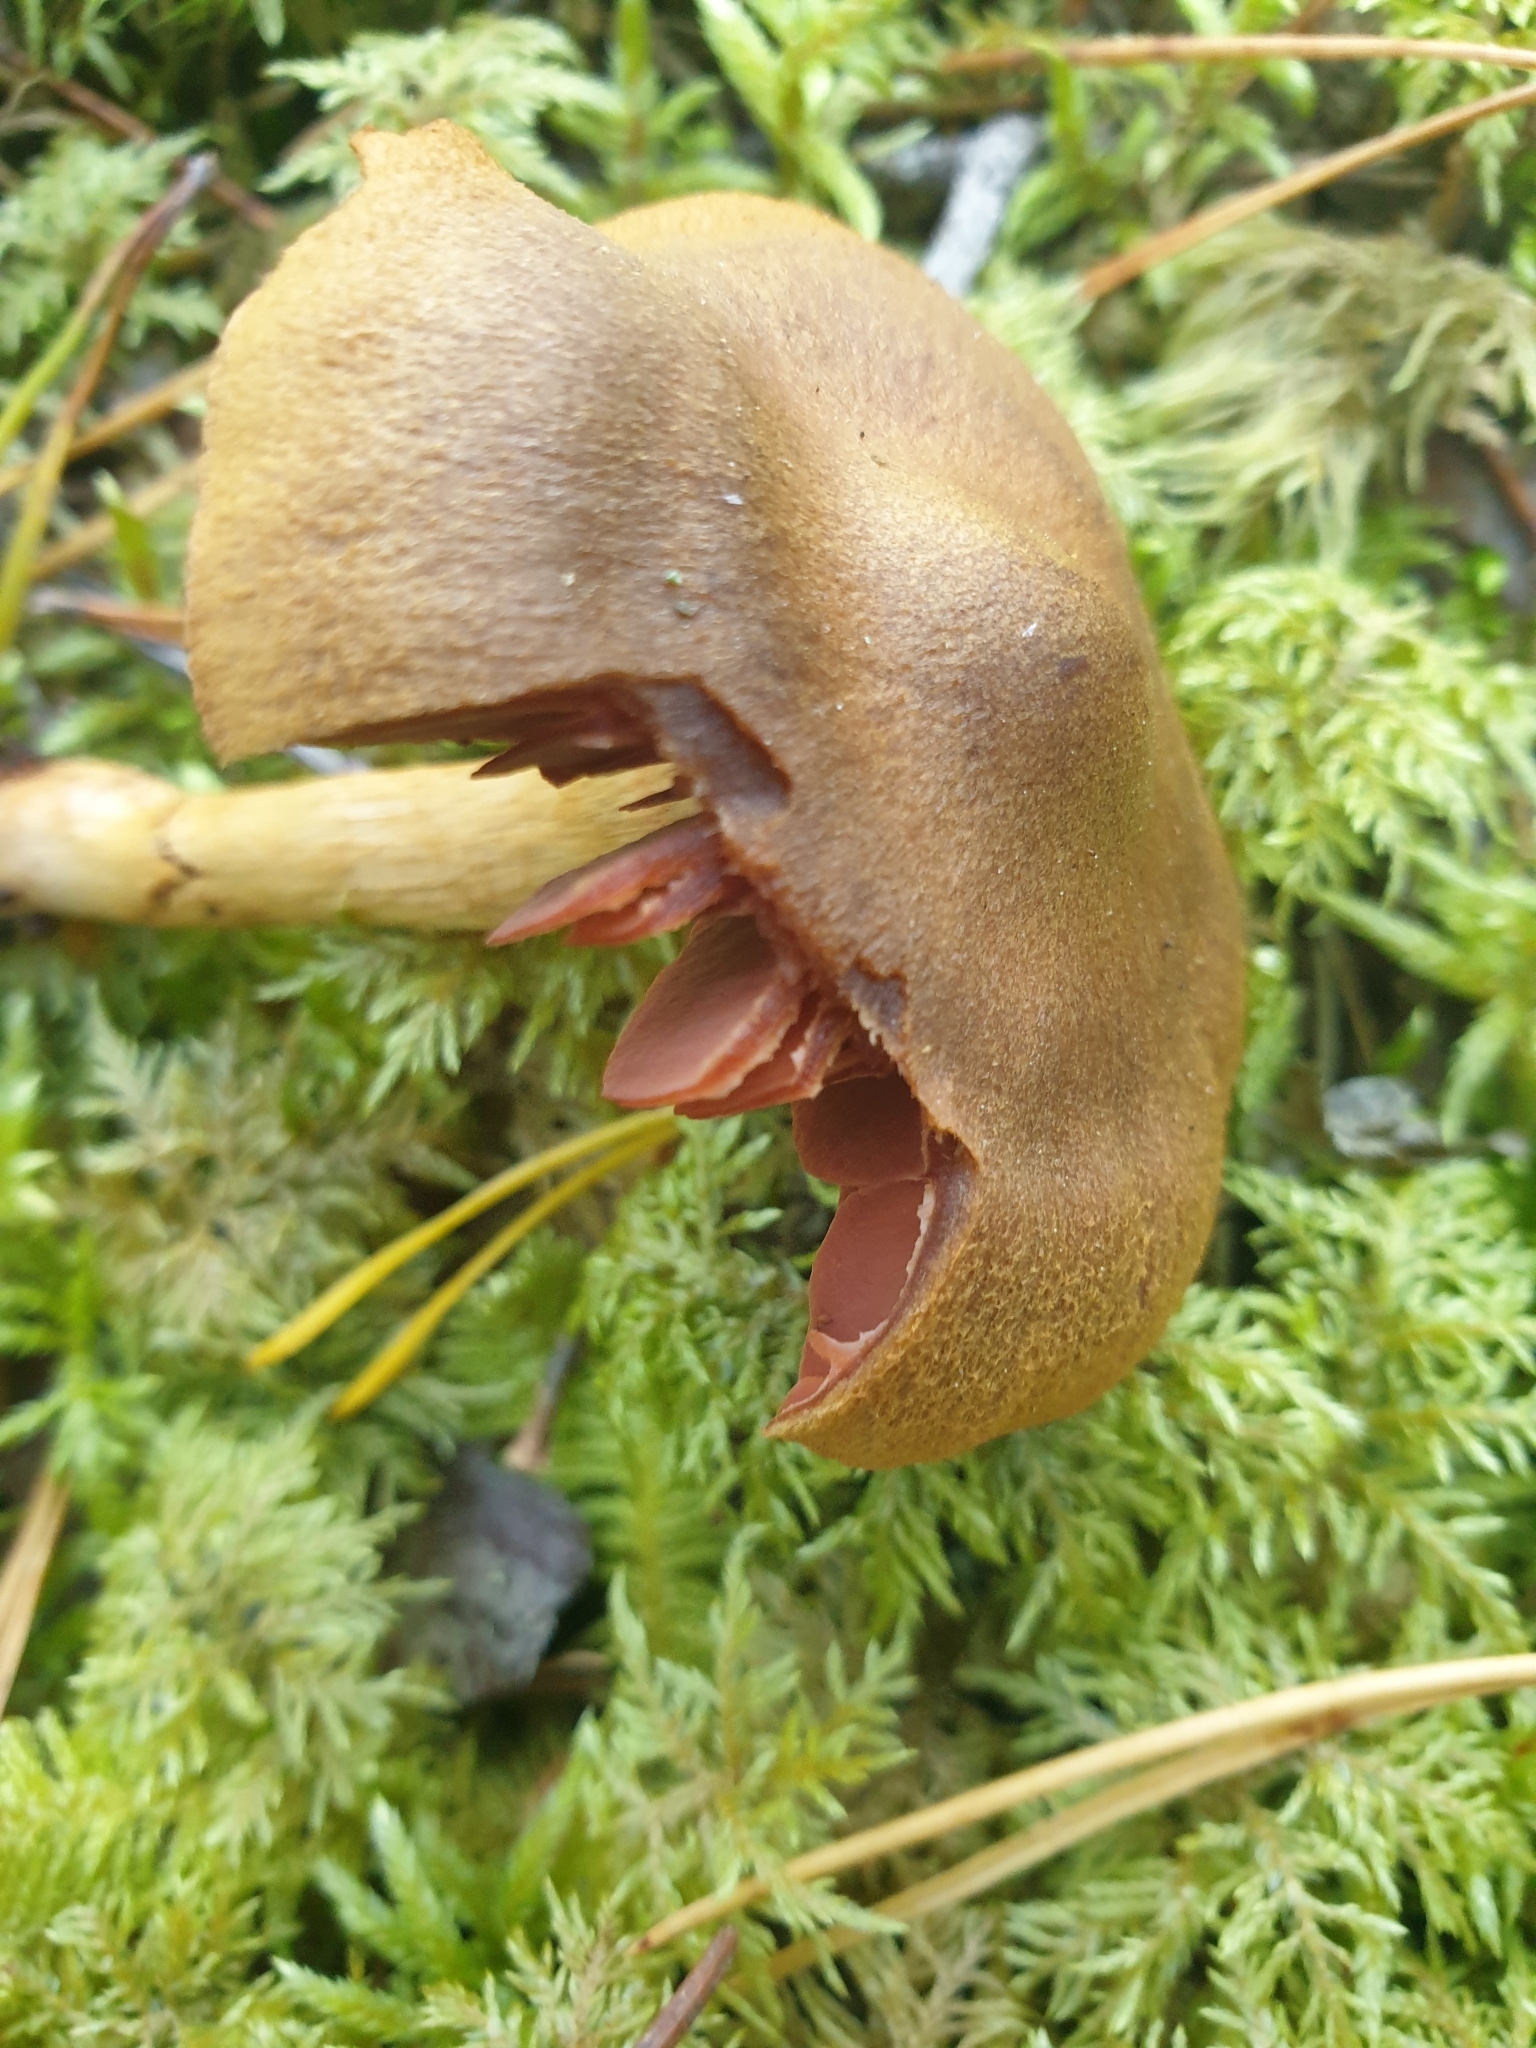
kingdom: Fungi
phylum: Basidiomycota
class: Agaricomycetes
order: Agaricales
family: Cortinariaceae
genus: Cortinarius
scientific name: Cortinarius semisanguineus
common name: Surprise webcap
